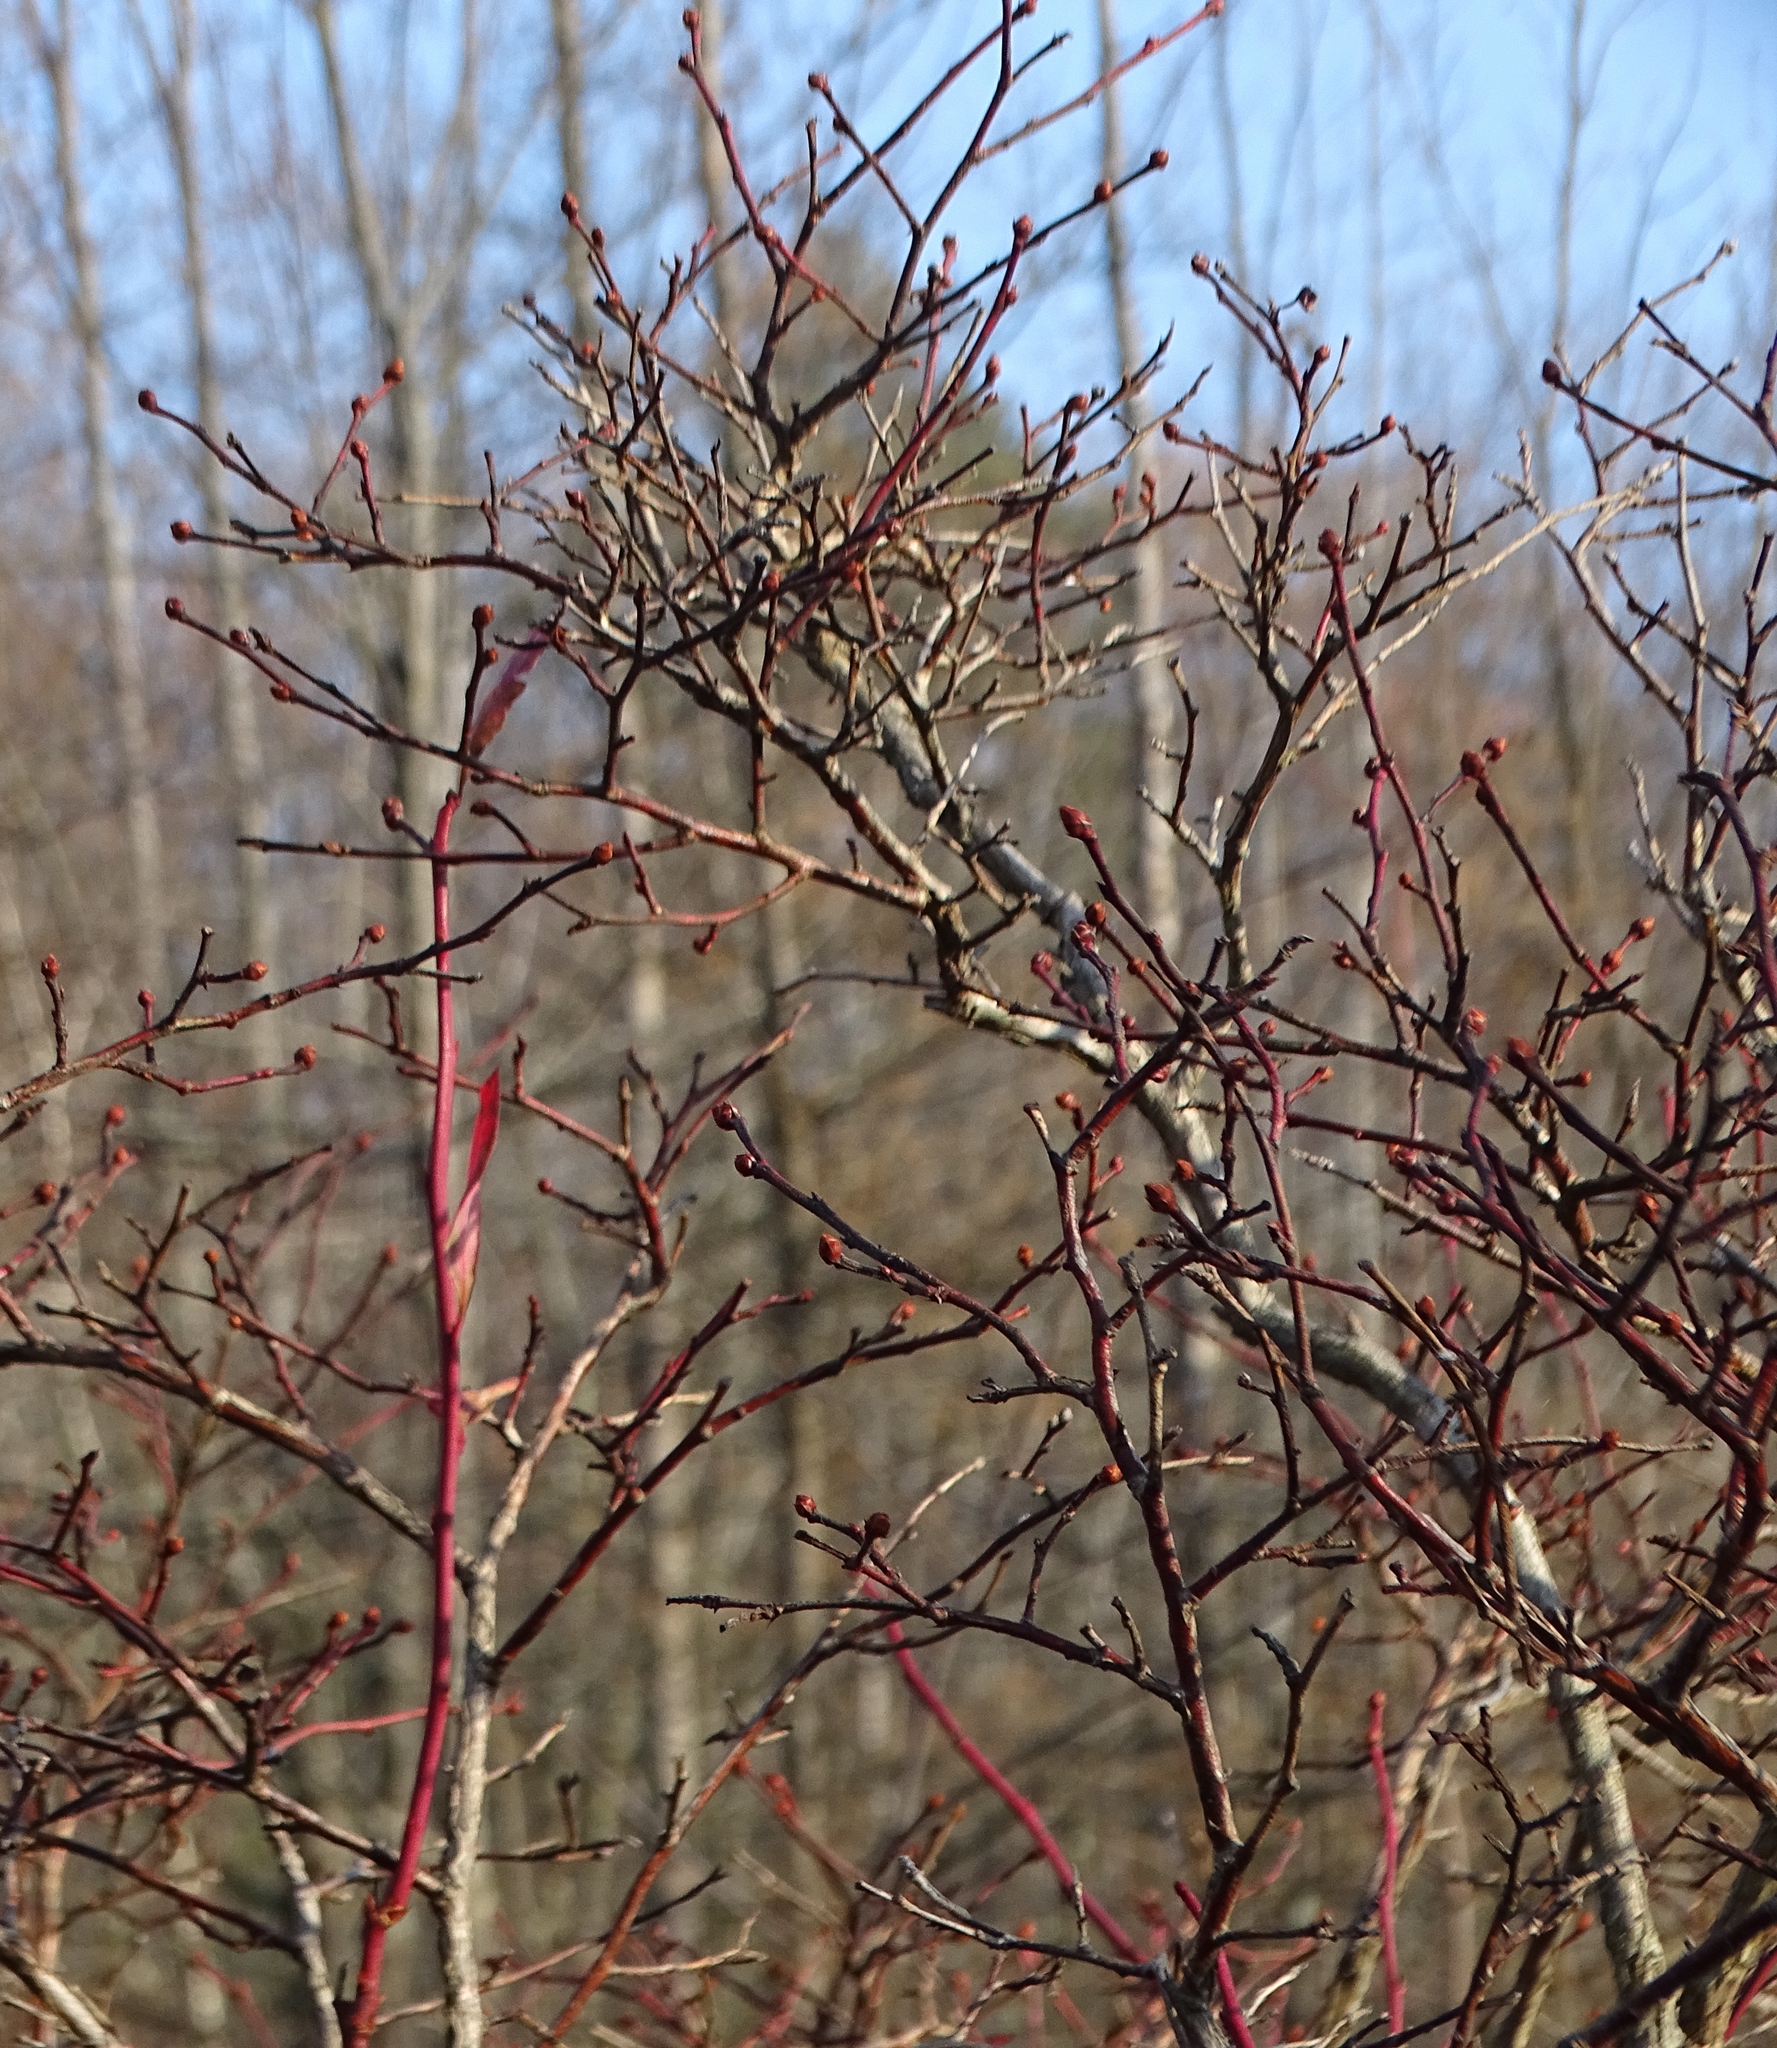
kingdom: Plantae
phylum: Tracheophyta
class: Magnoliopsida
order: Ericales
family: Ericaceae
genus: Vaccinium
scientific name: Vaccinium corymbosum
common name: Blueberry
